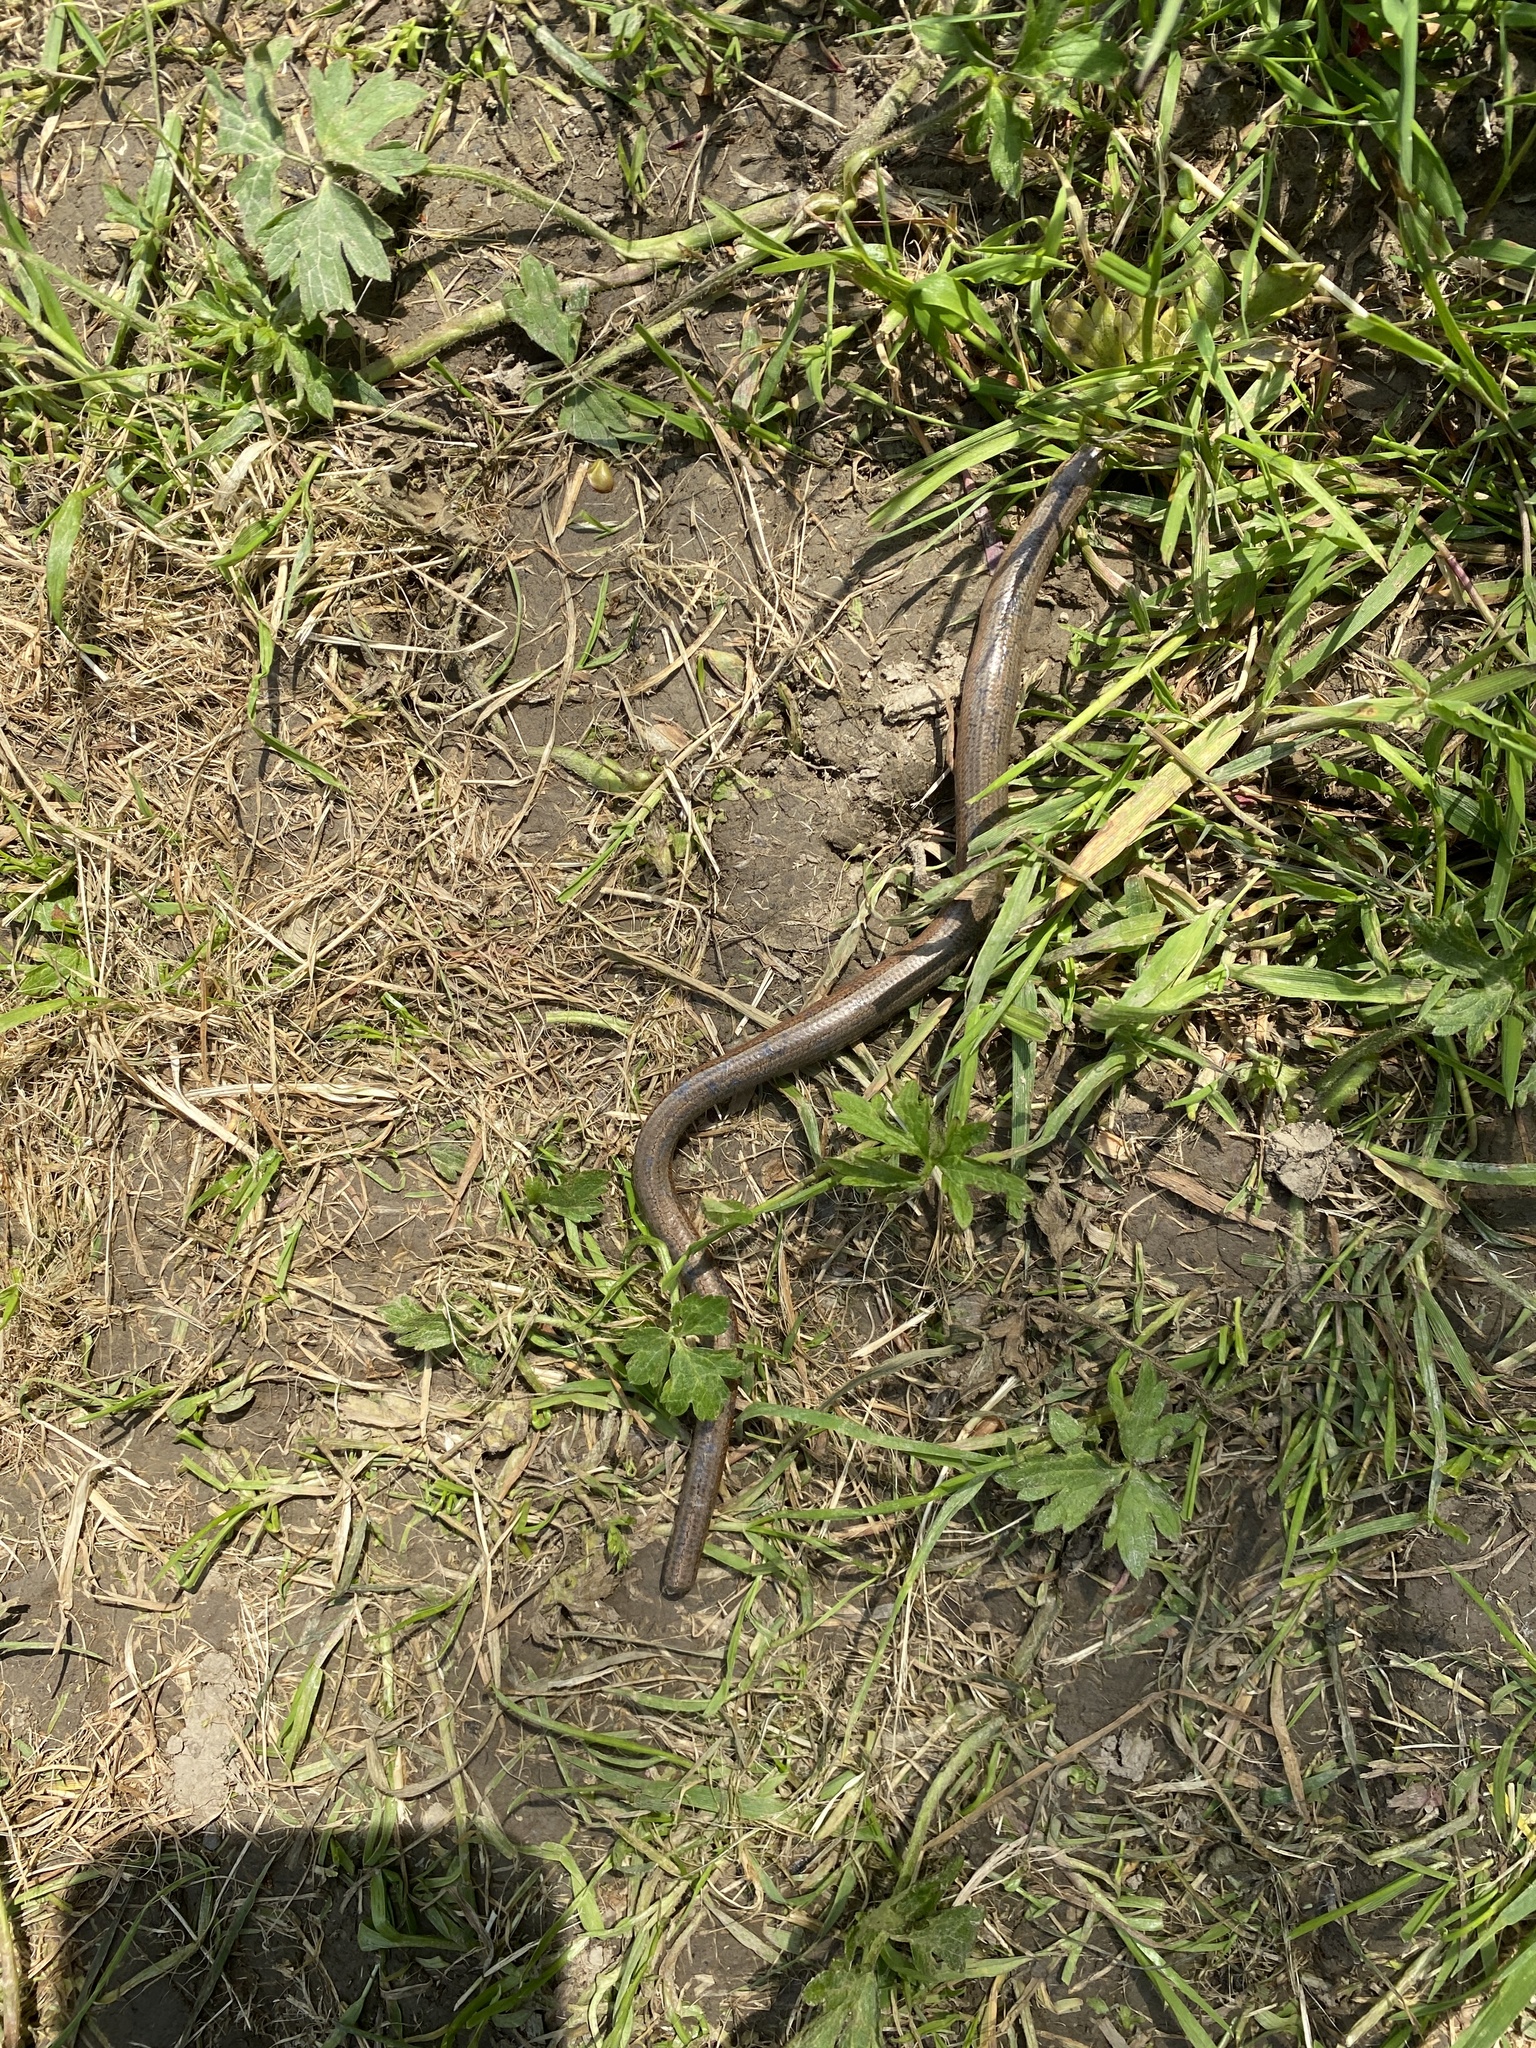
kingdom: Animalia
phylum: Chordata
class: Squamata
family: Anguidae
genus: Anguis
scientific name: Anguis fragilis
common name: Slow worm
